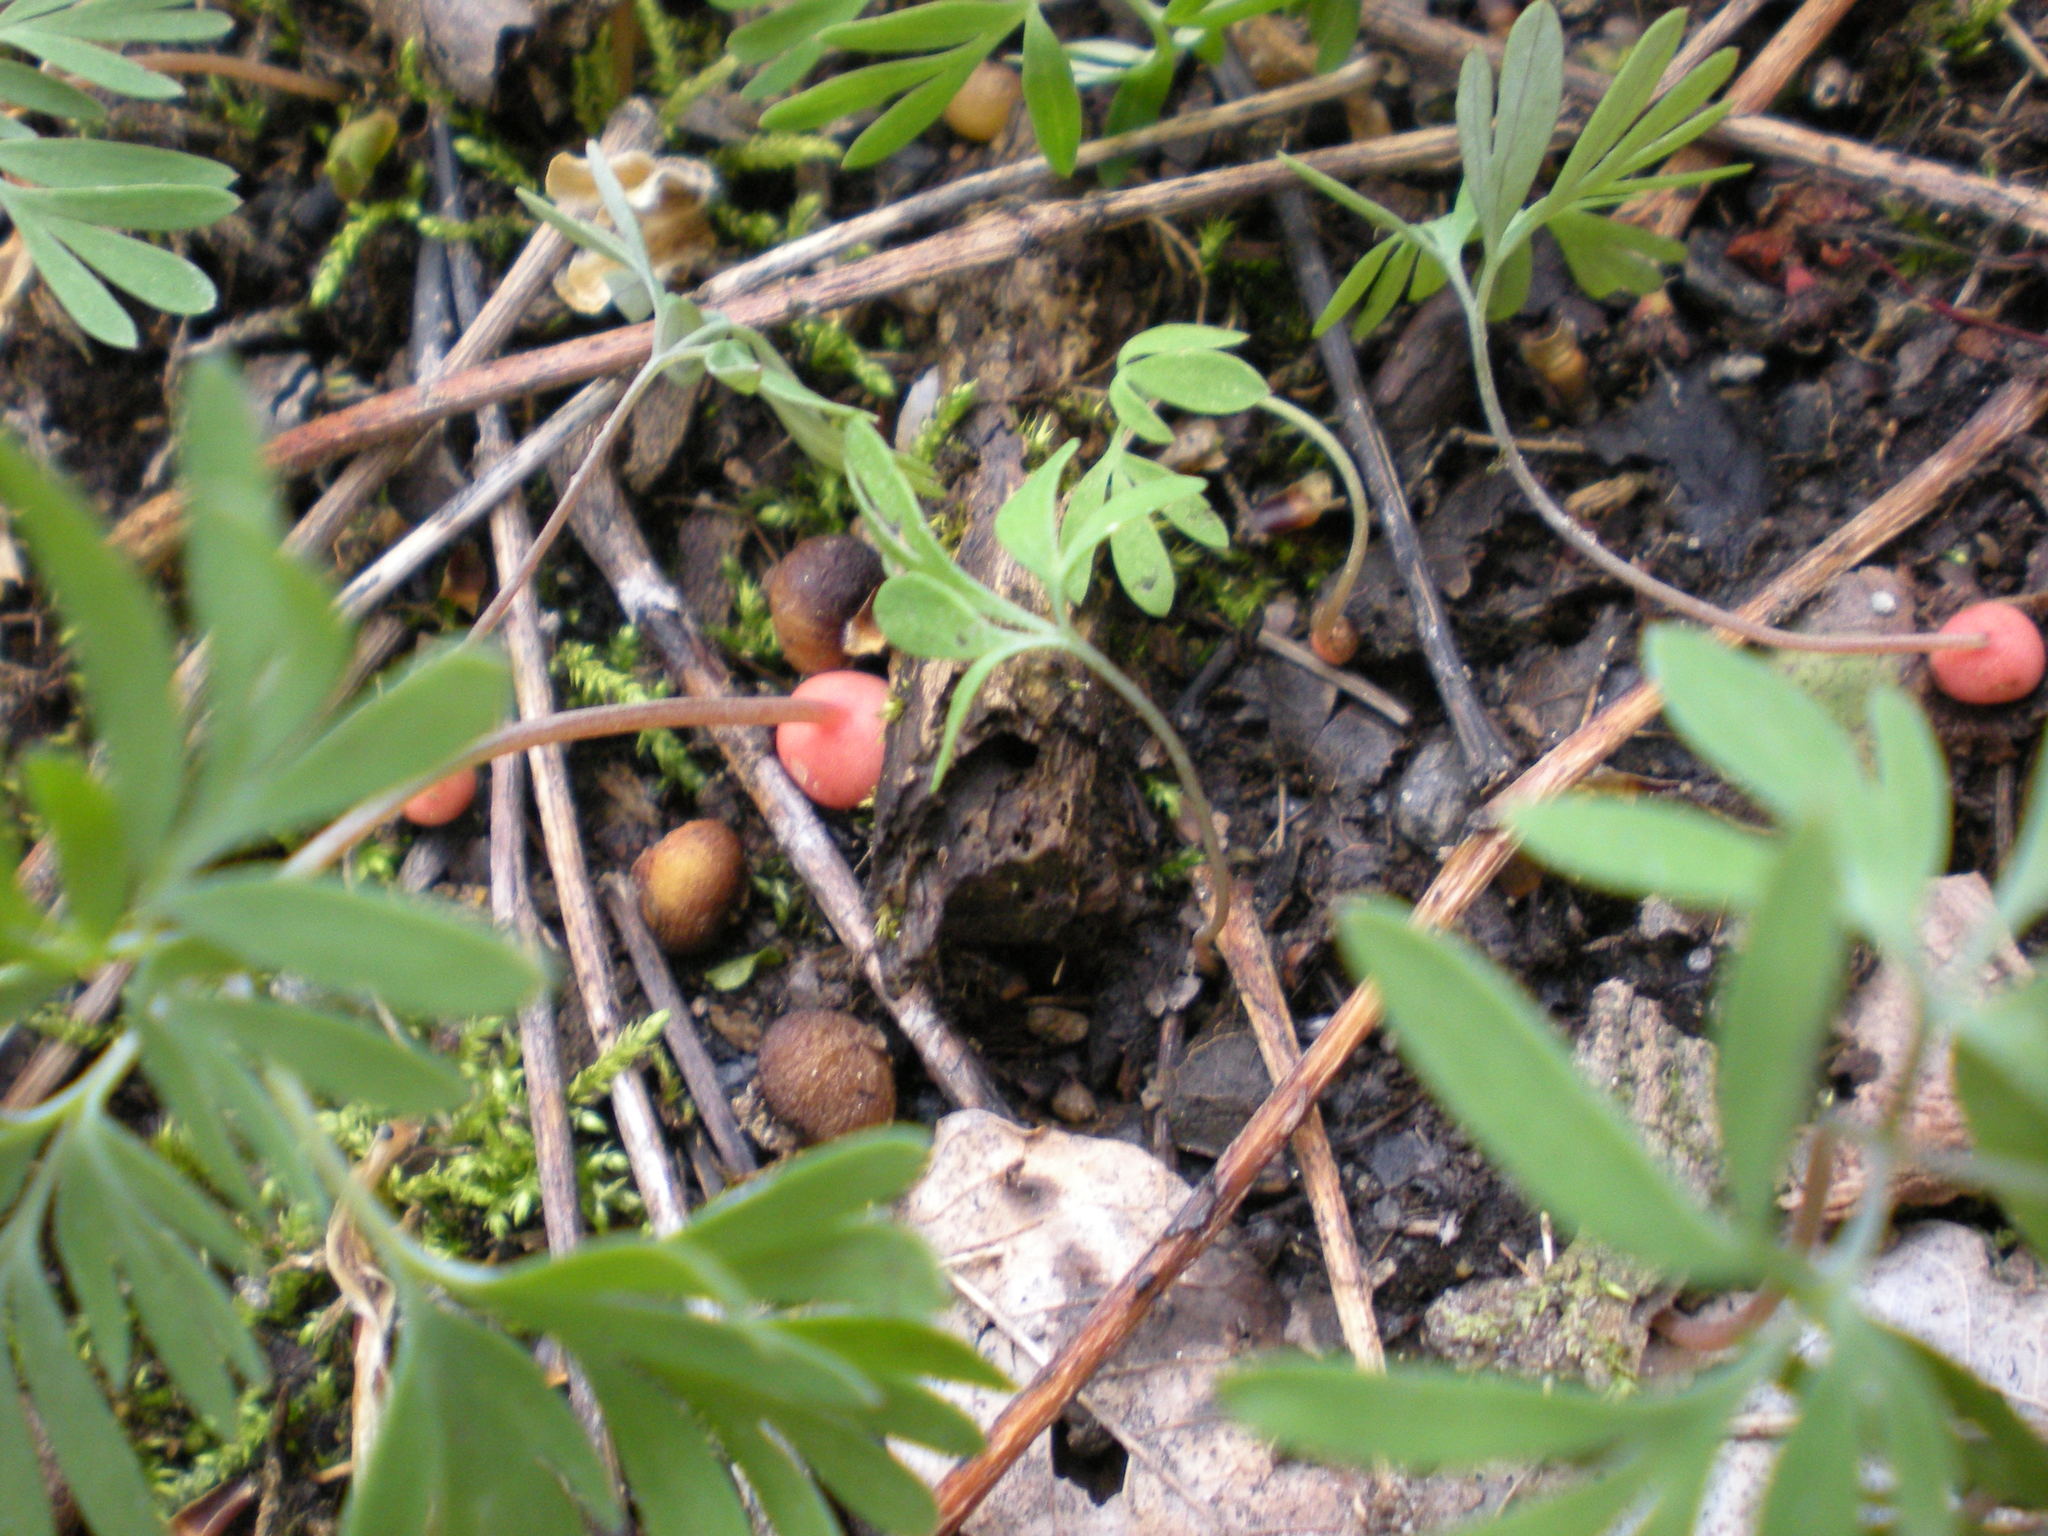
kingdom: Plantae
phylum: Tracheophyta
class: Magnoliopsida
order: Ranunculales
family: Papaveraceae
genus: Dicentra
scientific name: Dicentra canadensis
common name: Squirrel-corn
